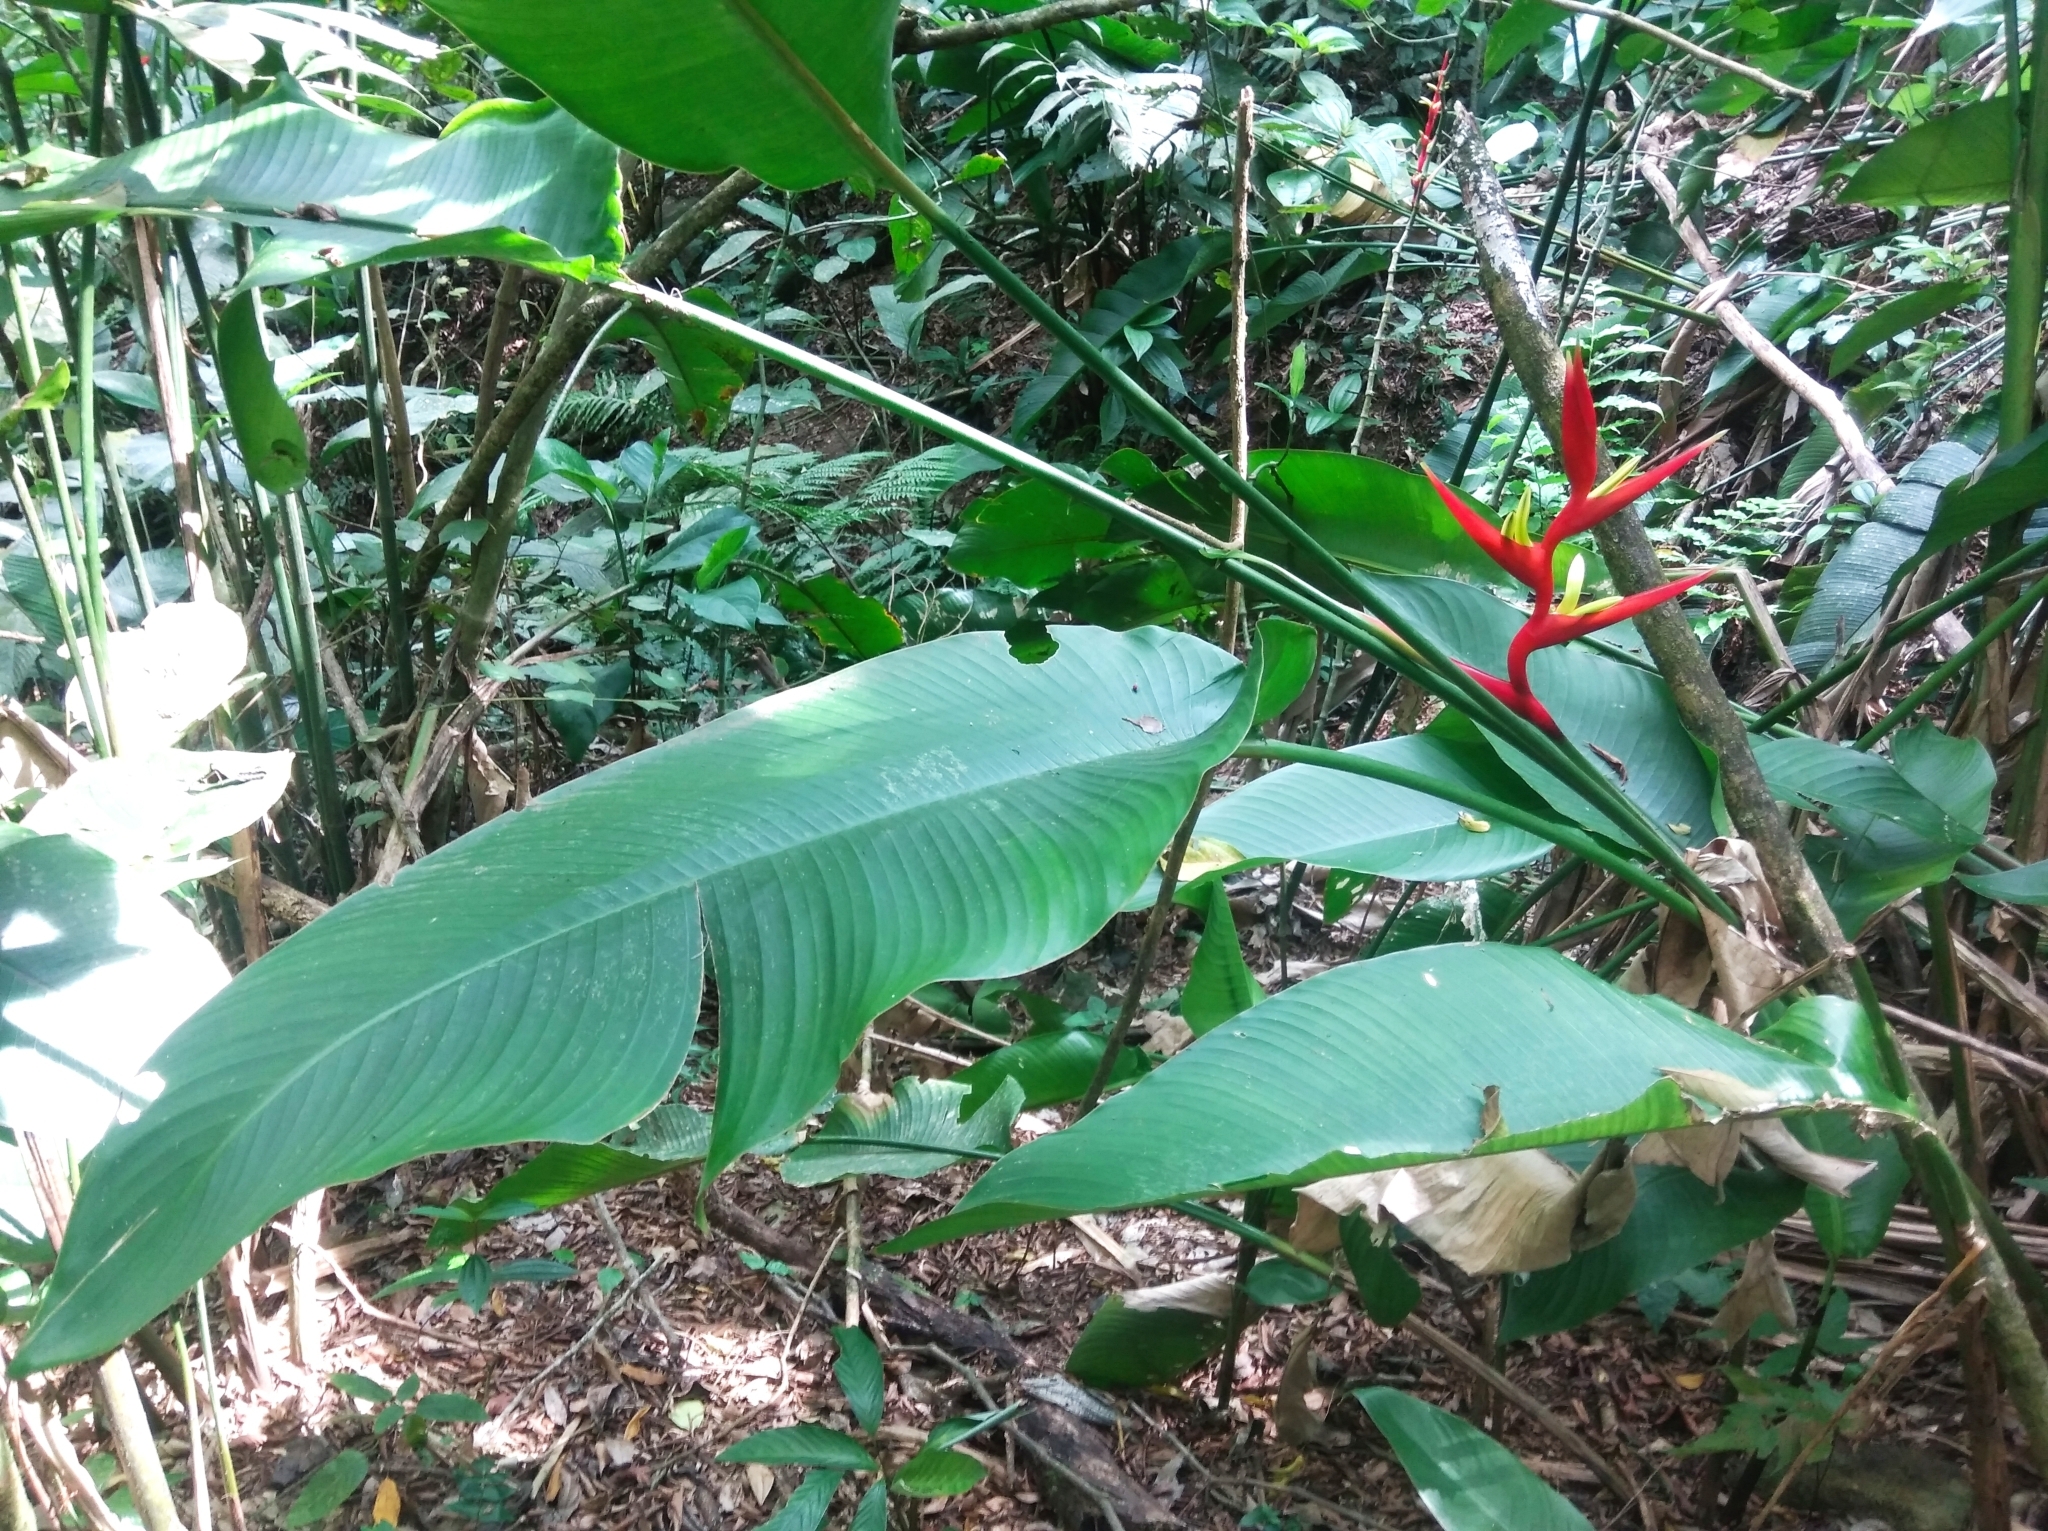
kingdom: Plantae
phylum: Tracheophyta
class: Liliopsida
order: Zingiberales
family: Heliconiaceae
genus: Heliconia
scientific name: Heliconia farinosa
